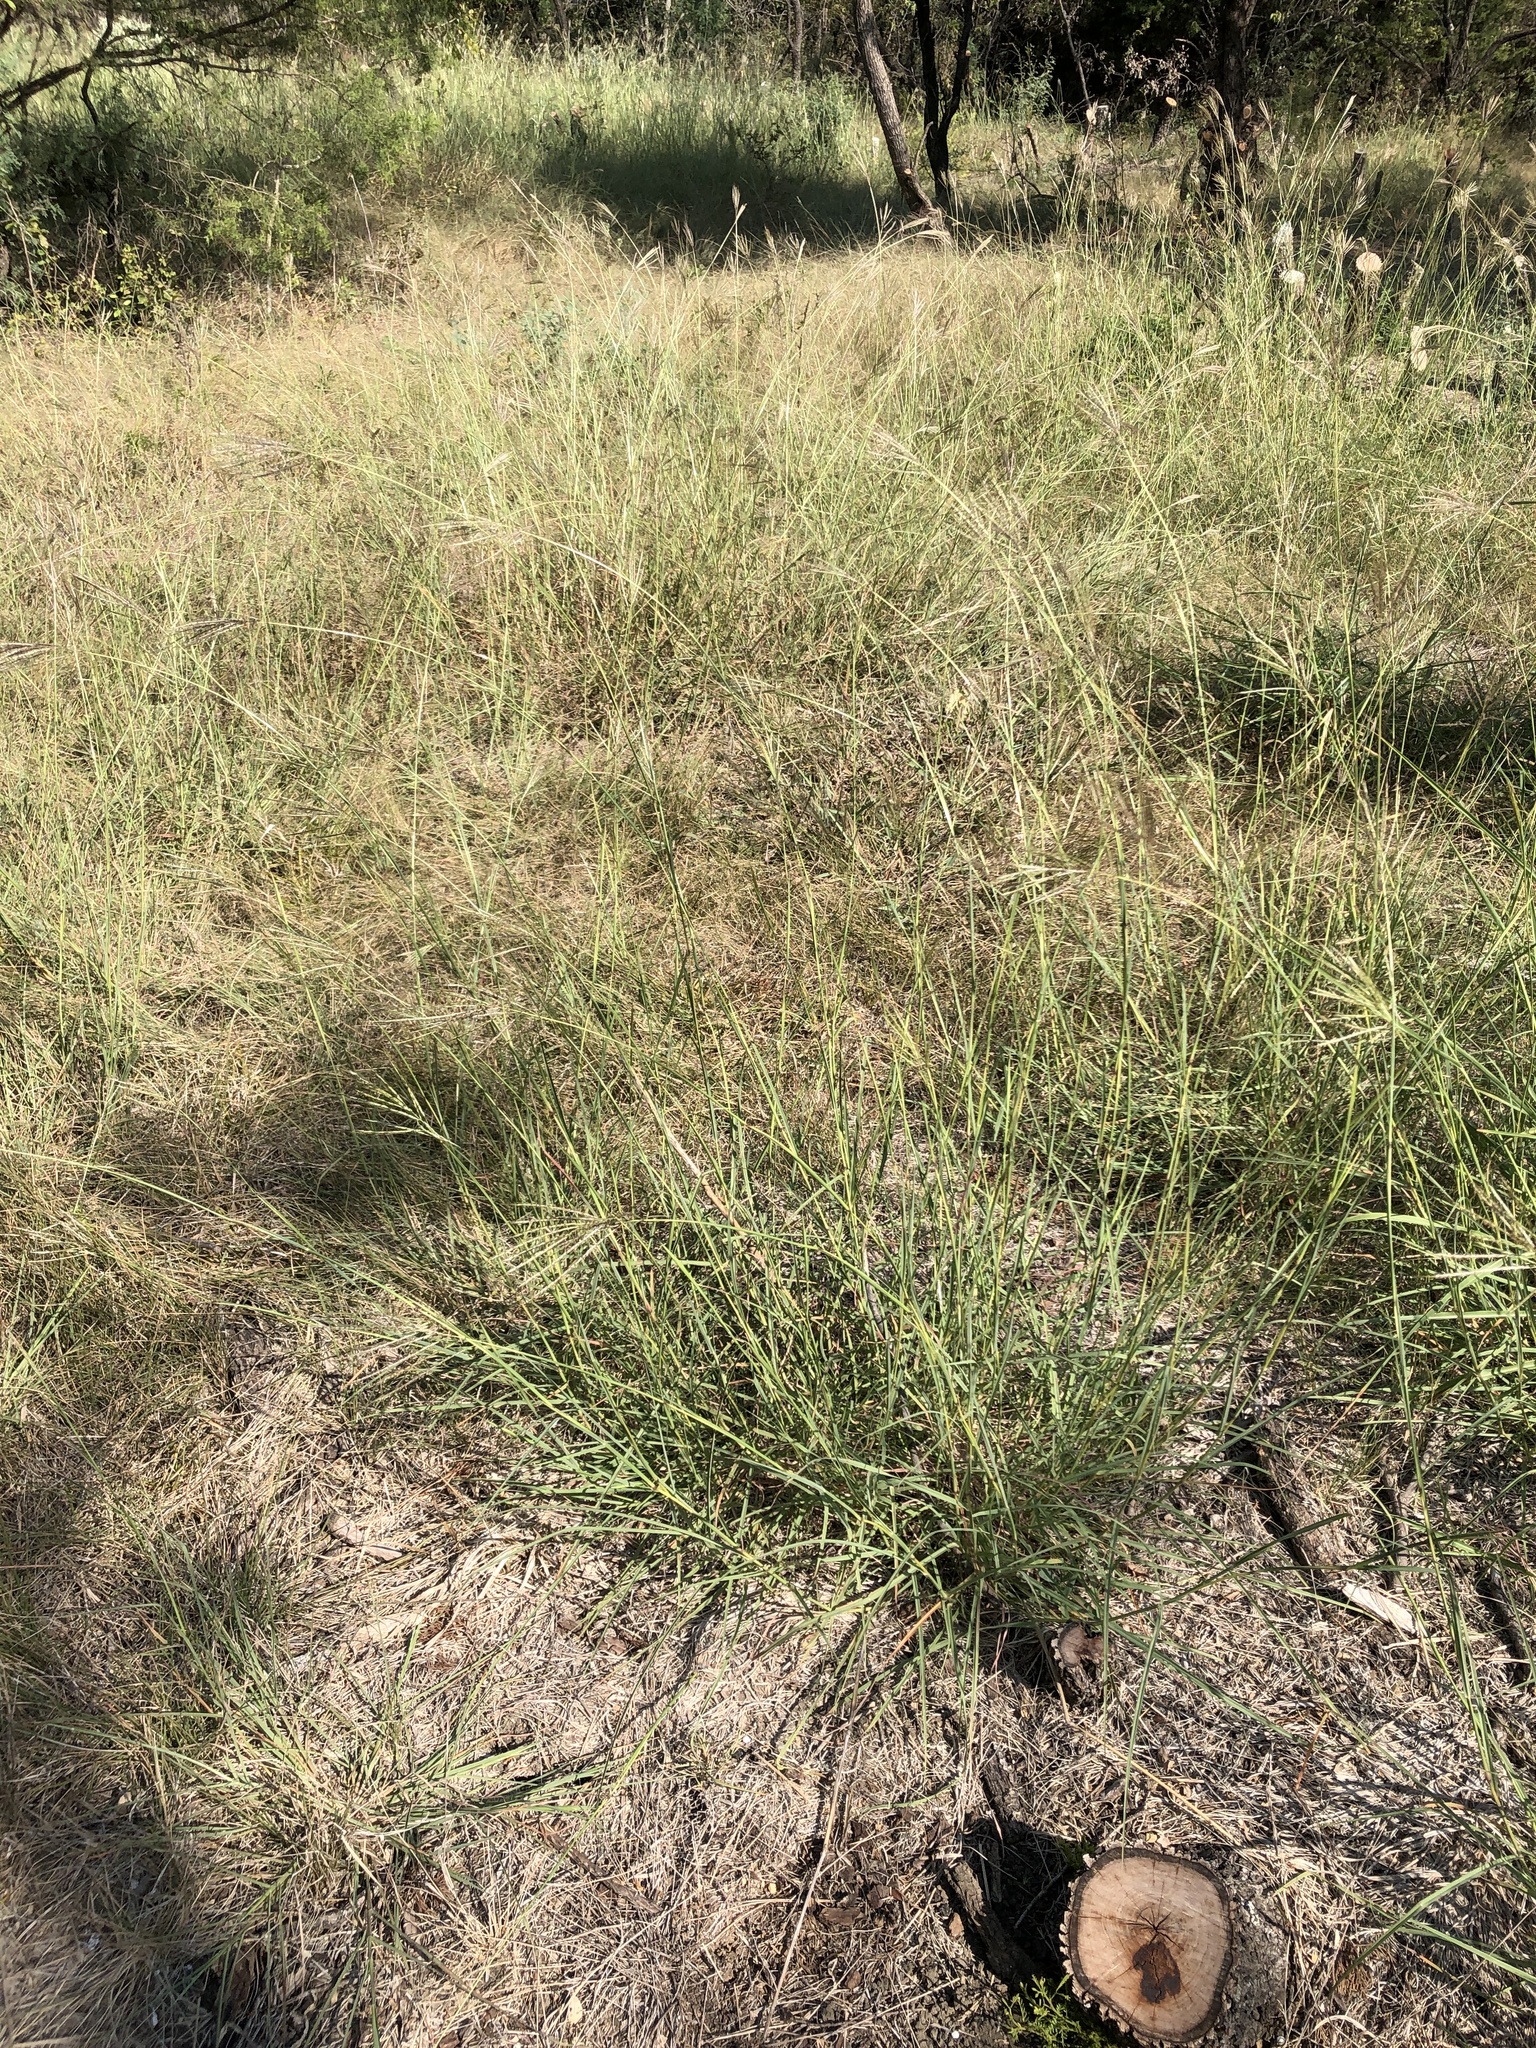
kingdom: Plantae
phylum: Tracheophyta
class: Liliopsida
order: Poales
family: Poaceae
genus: Bothriochloa
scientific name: Bothriochloa ischaemum
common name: Yellow bluestem
